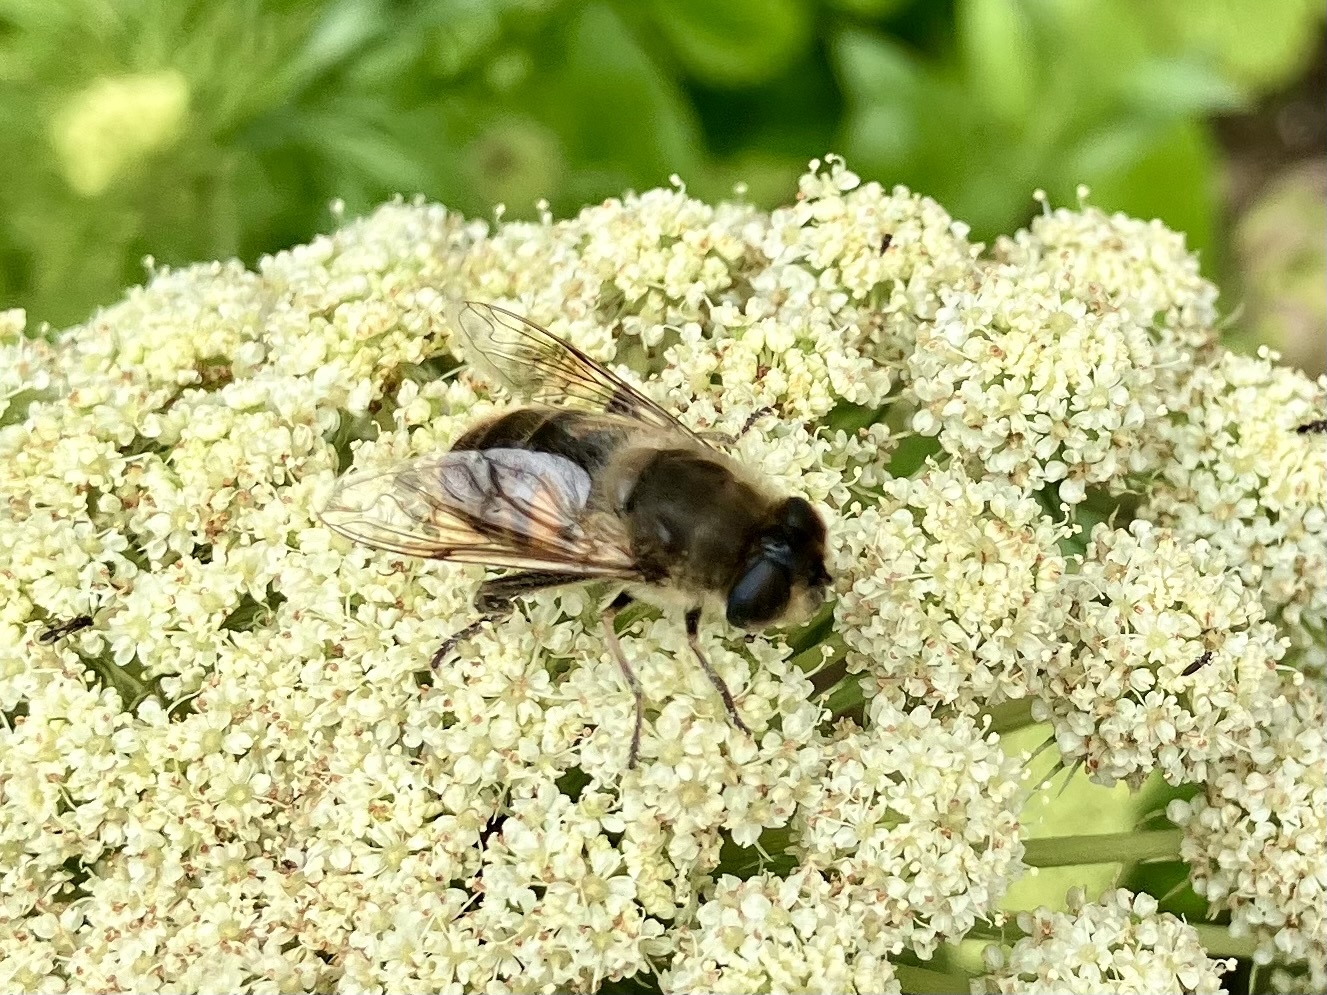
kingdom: Animalia
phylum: Arthropoda
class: Insecta
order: Diptera
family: Syrphidae
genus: Eristalis
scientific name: Eristalis tenax
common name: Drone fly
